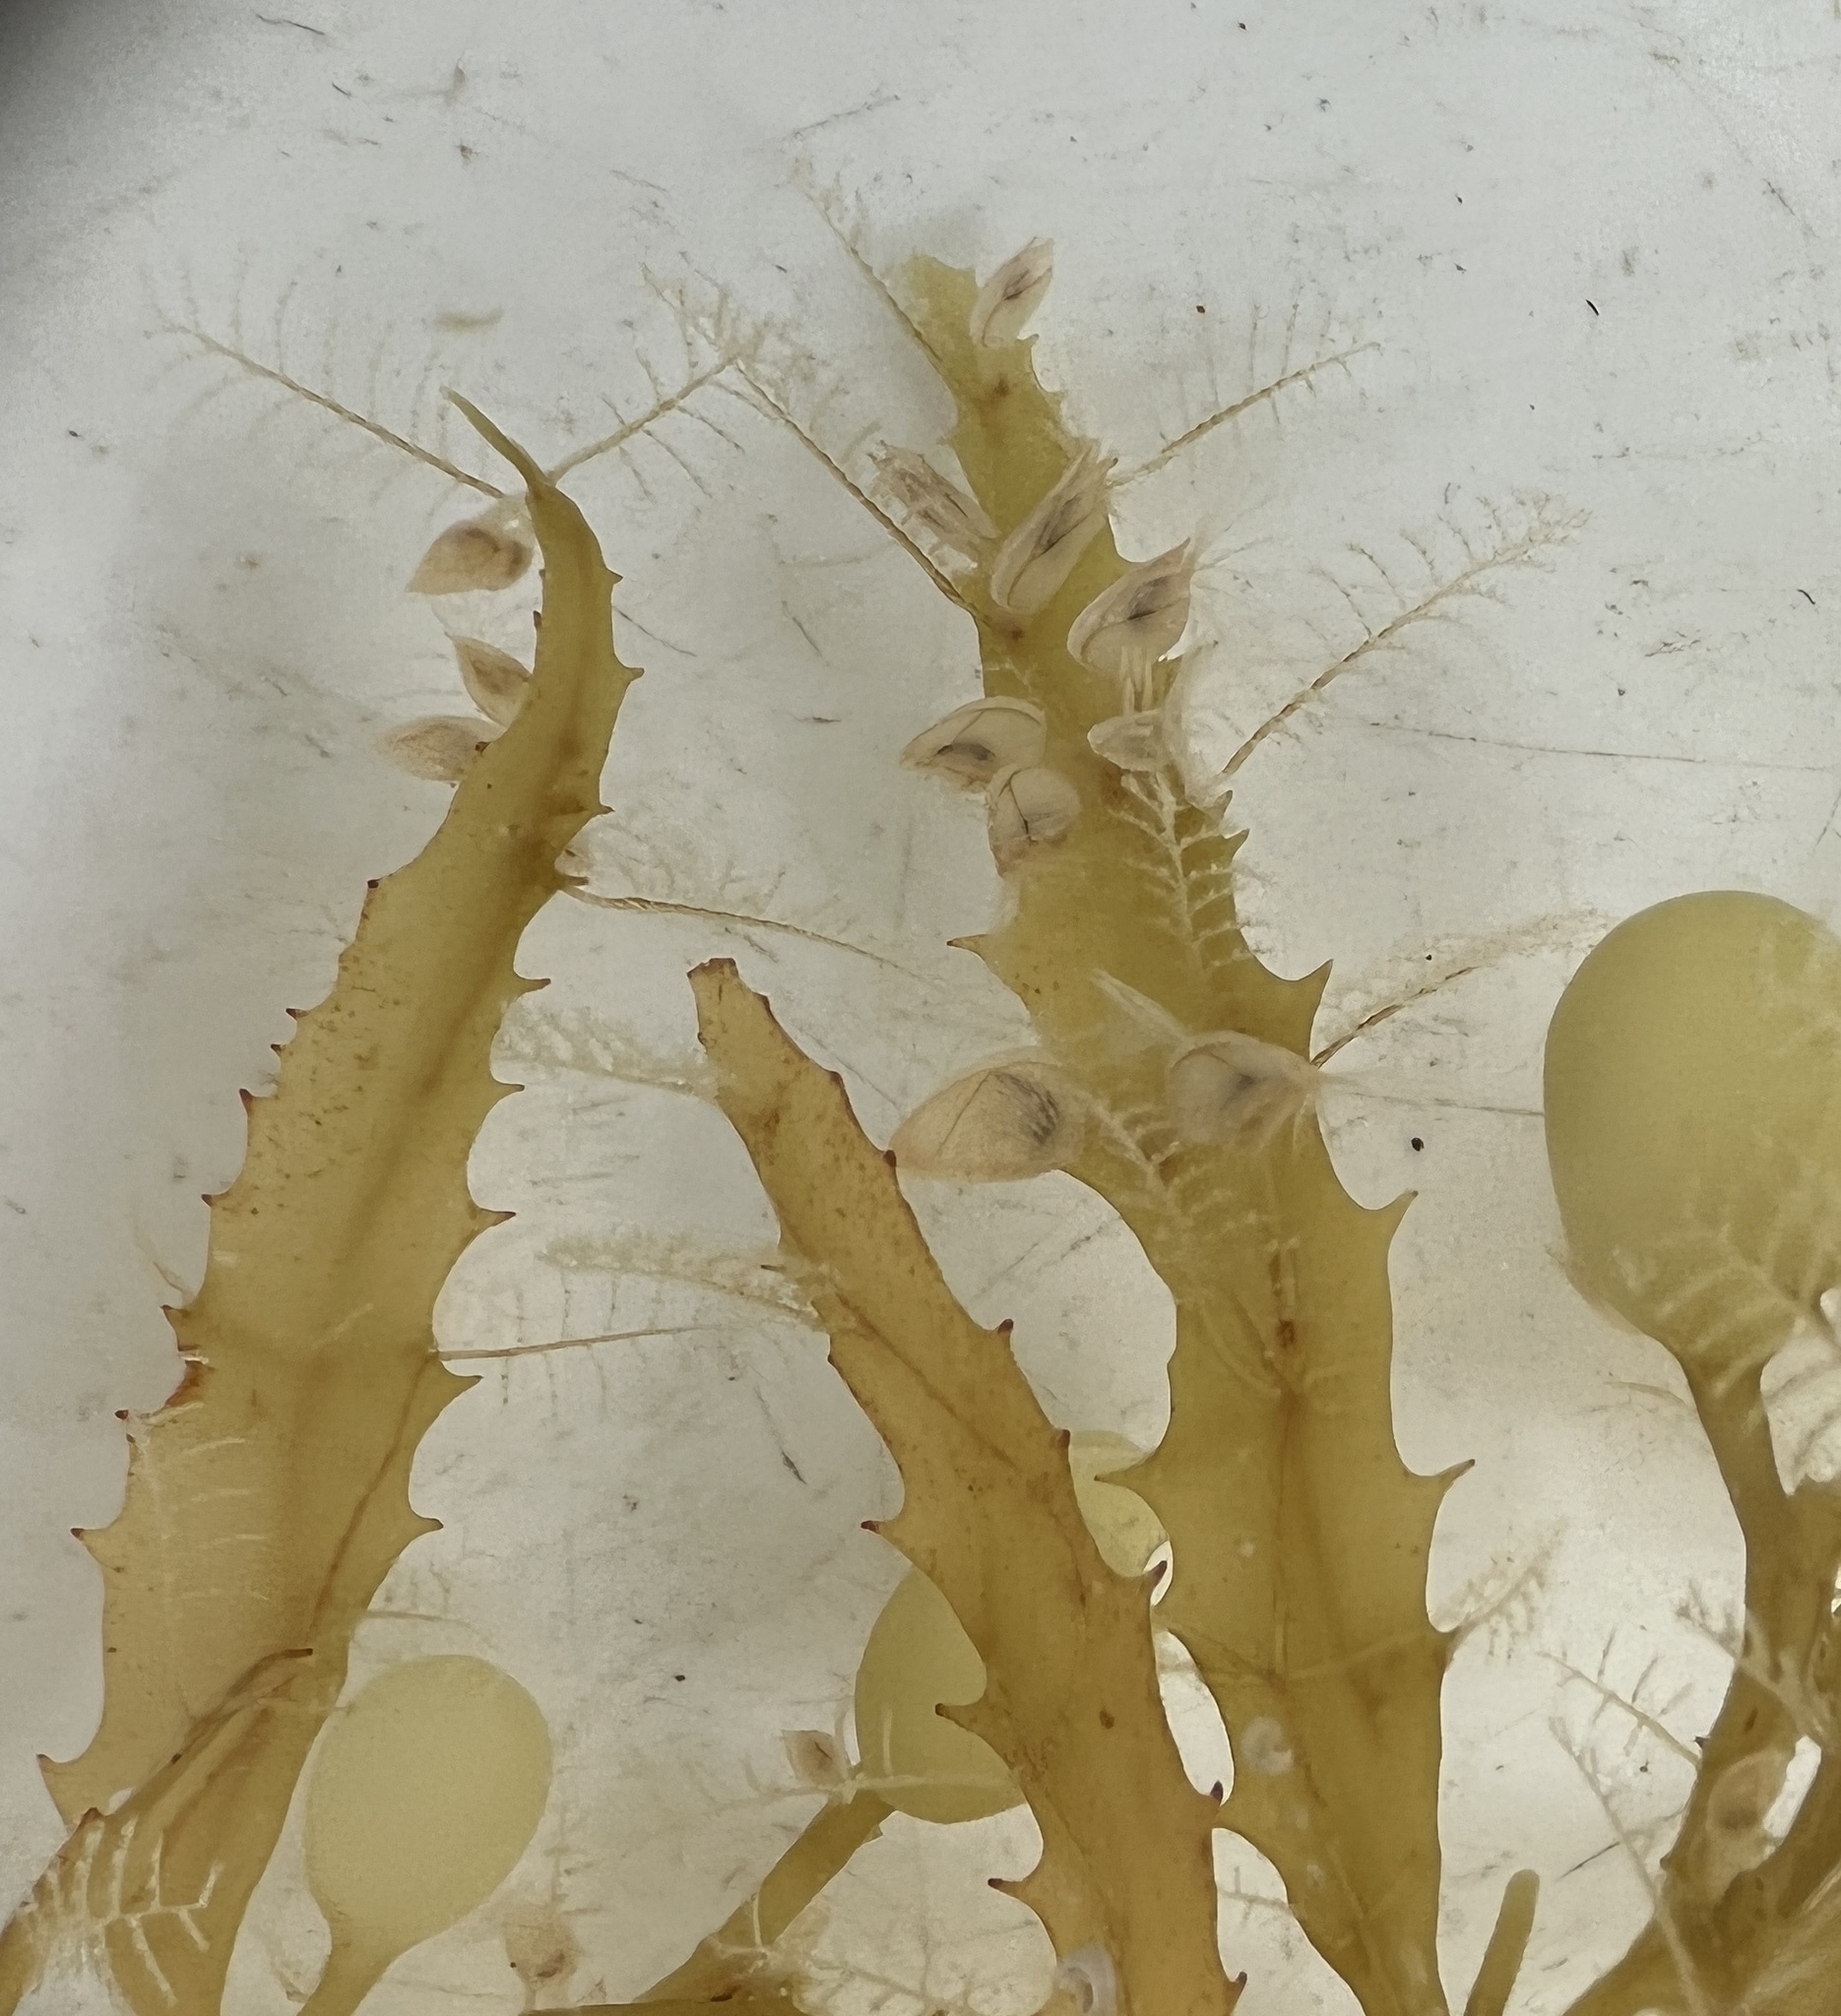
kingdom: Animalia
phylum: Cnidaria
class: Hydrozoa
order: Leptothecata
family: Aglaopheniidae
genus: Aglaophenia
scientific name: Aglaophenia latecarinata
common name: Feather plume hydroid
